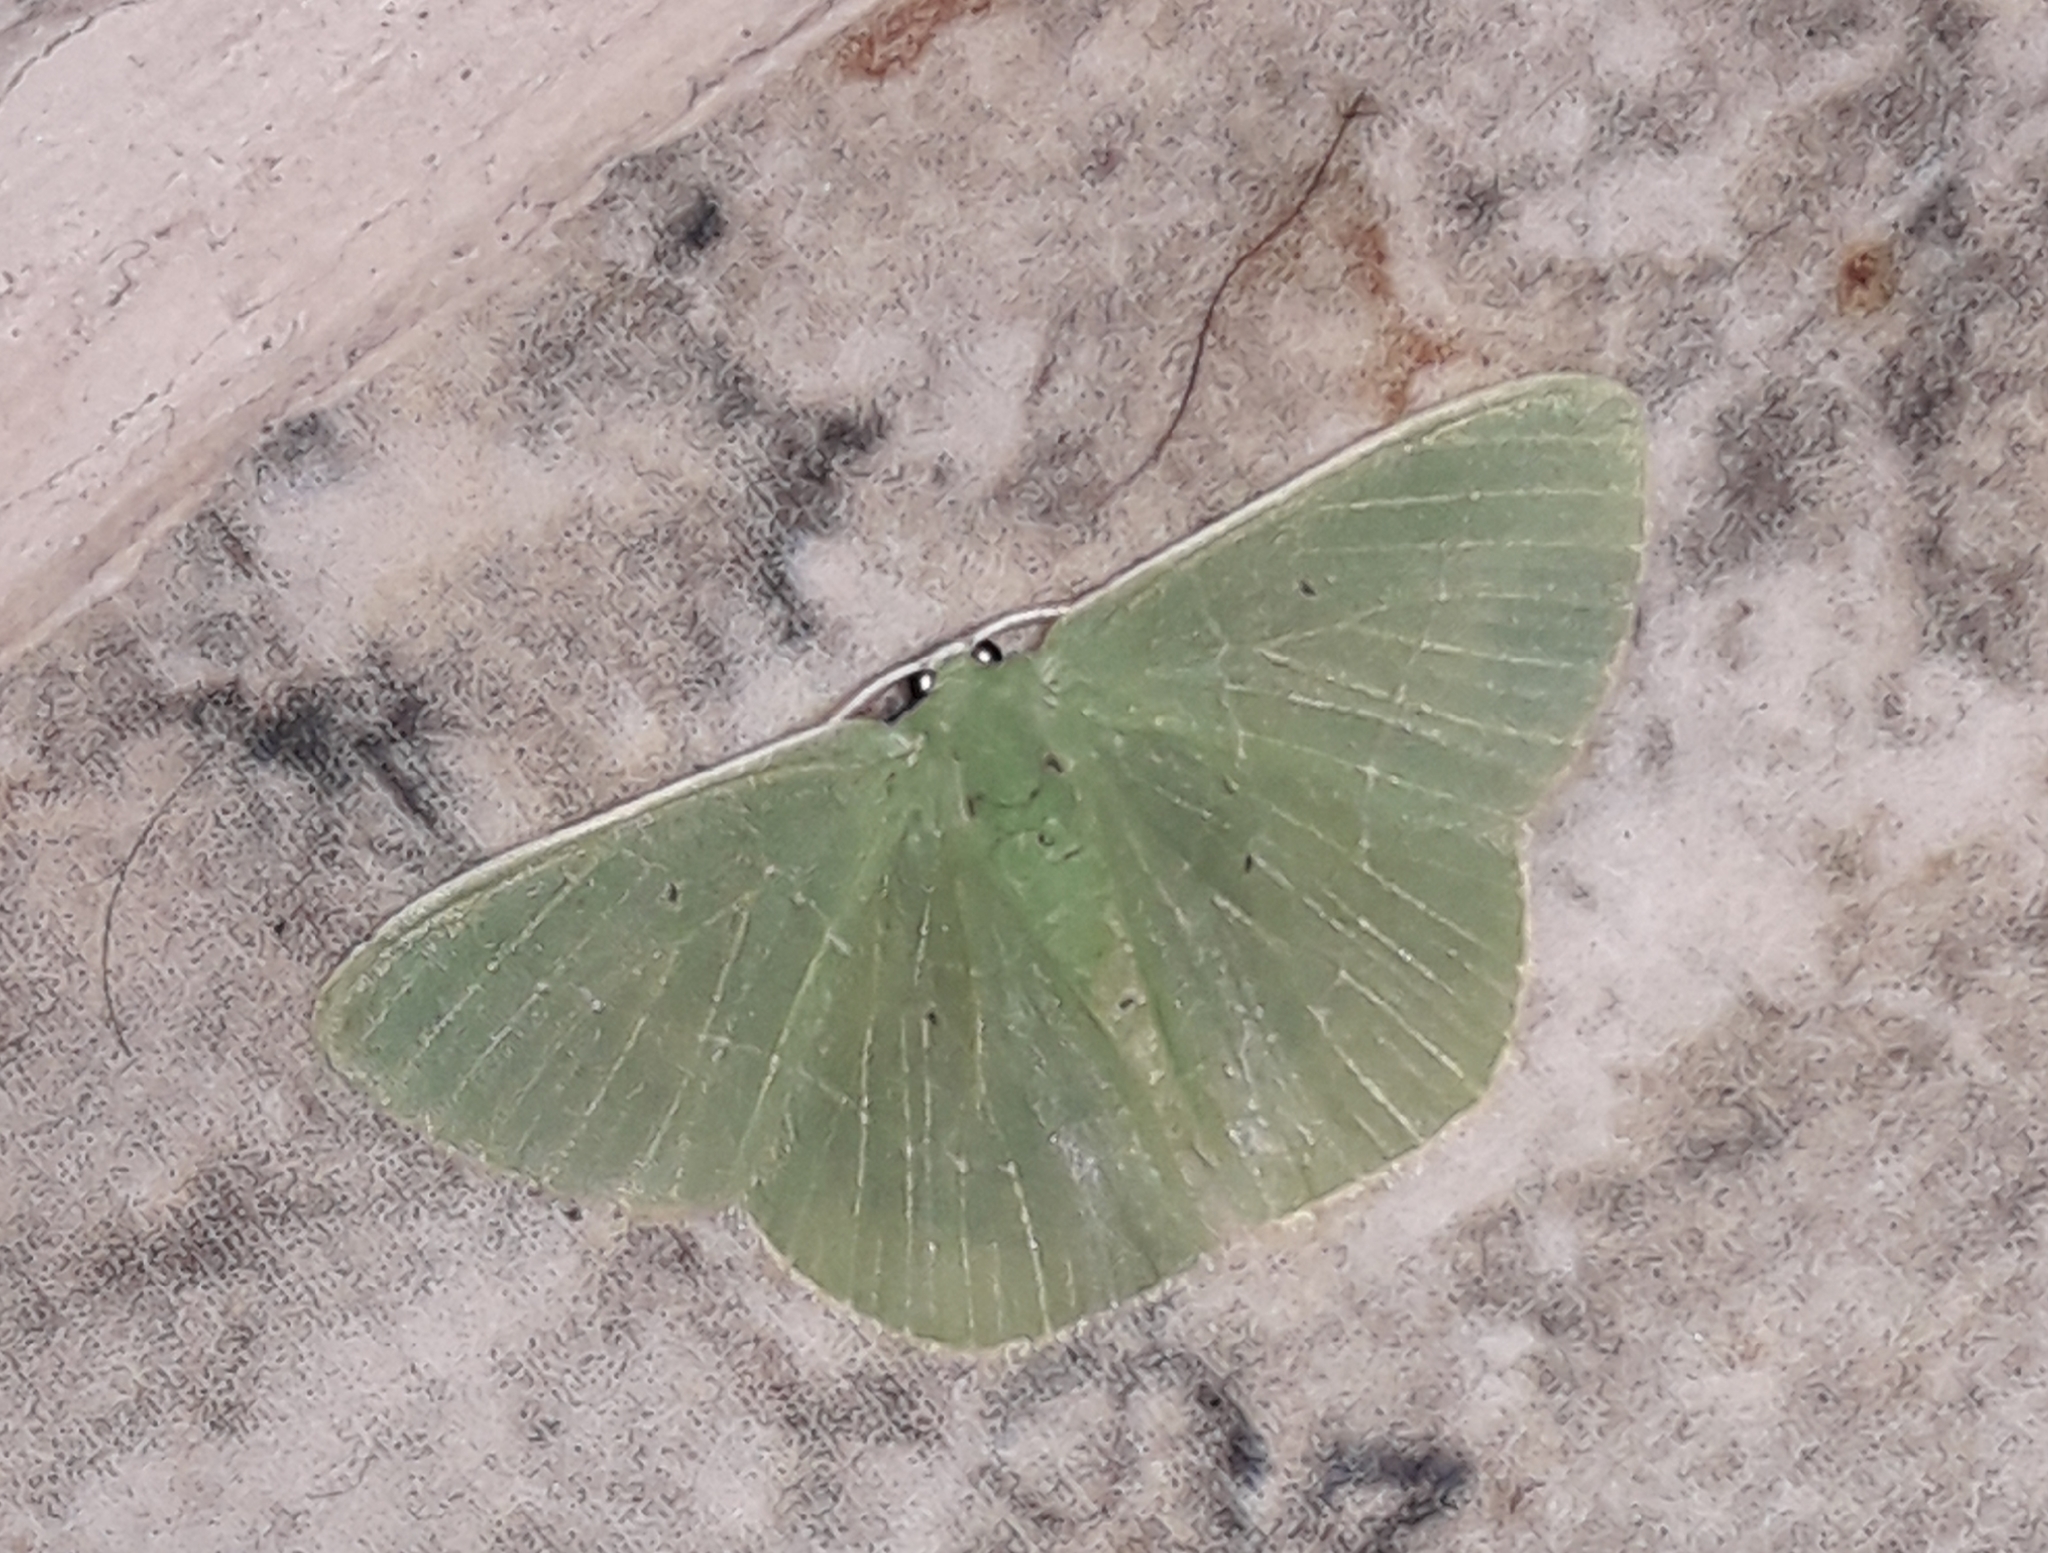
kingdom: Animalia
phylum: Arthropoda
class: Insecta
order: Lepidoptera
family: Geometridae
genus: Nemoria
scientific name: Nemoria remota
